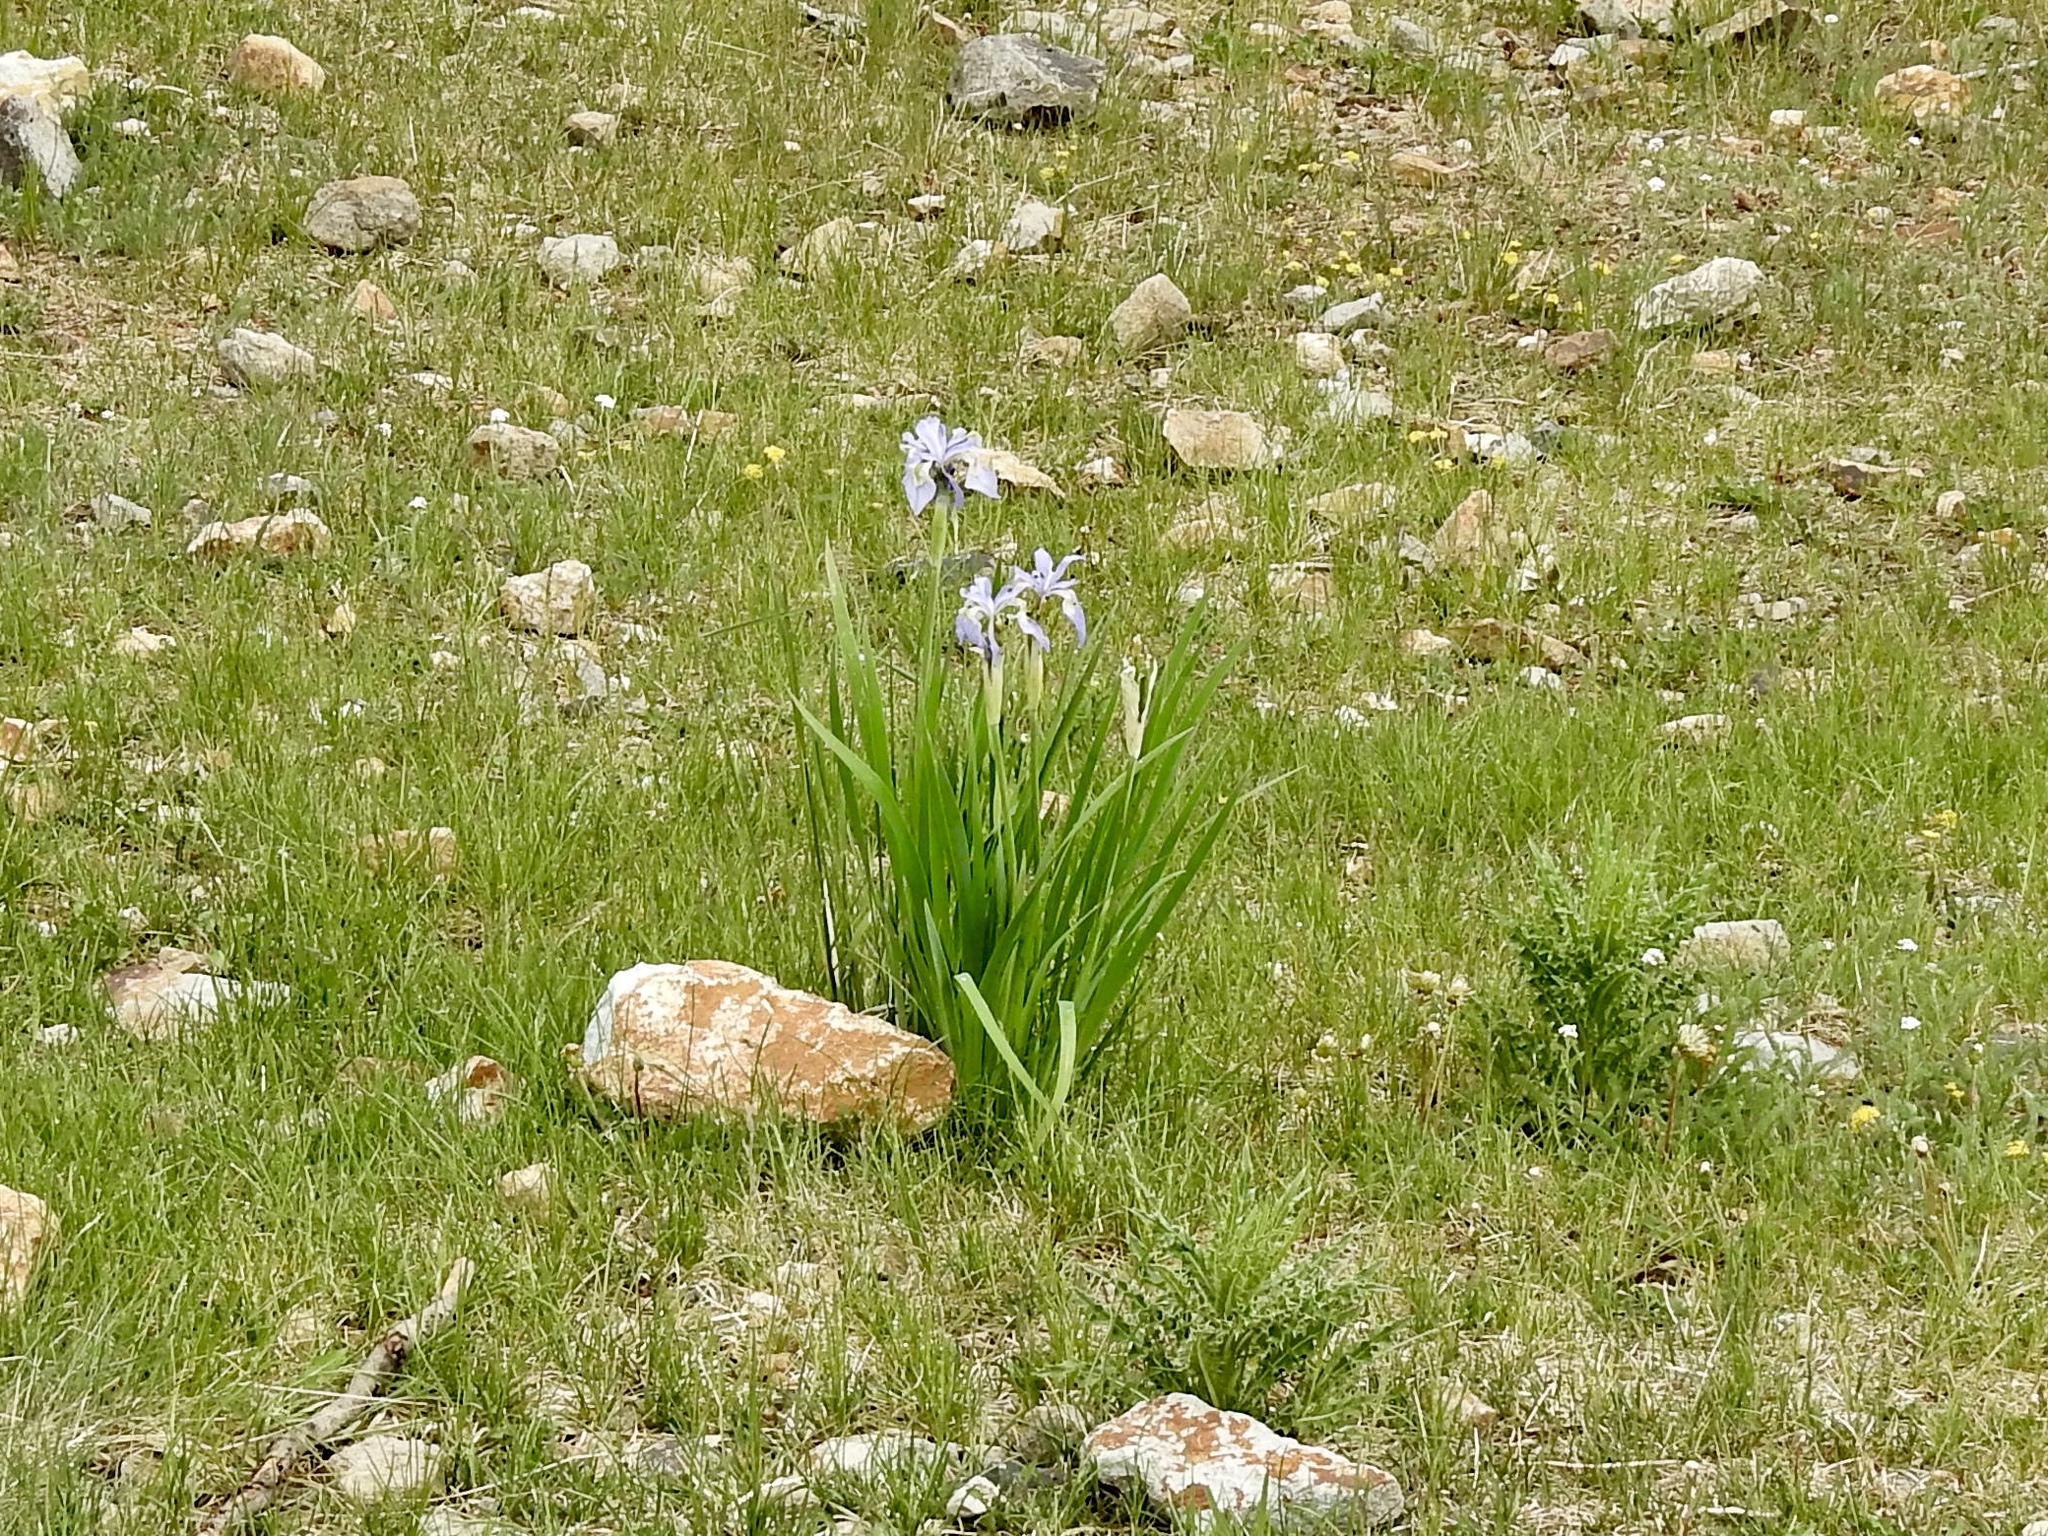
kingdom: Plantae
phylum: Tracheophyta
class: Liliopsida
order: Asparagales
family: Iridaceae
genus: Iris
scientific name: Iris missouriensis
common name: Rocky mountain iris
